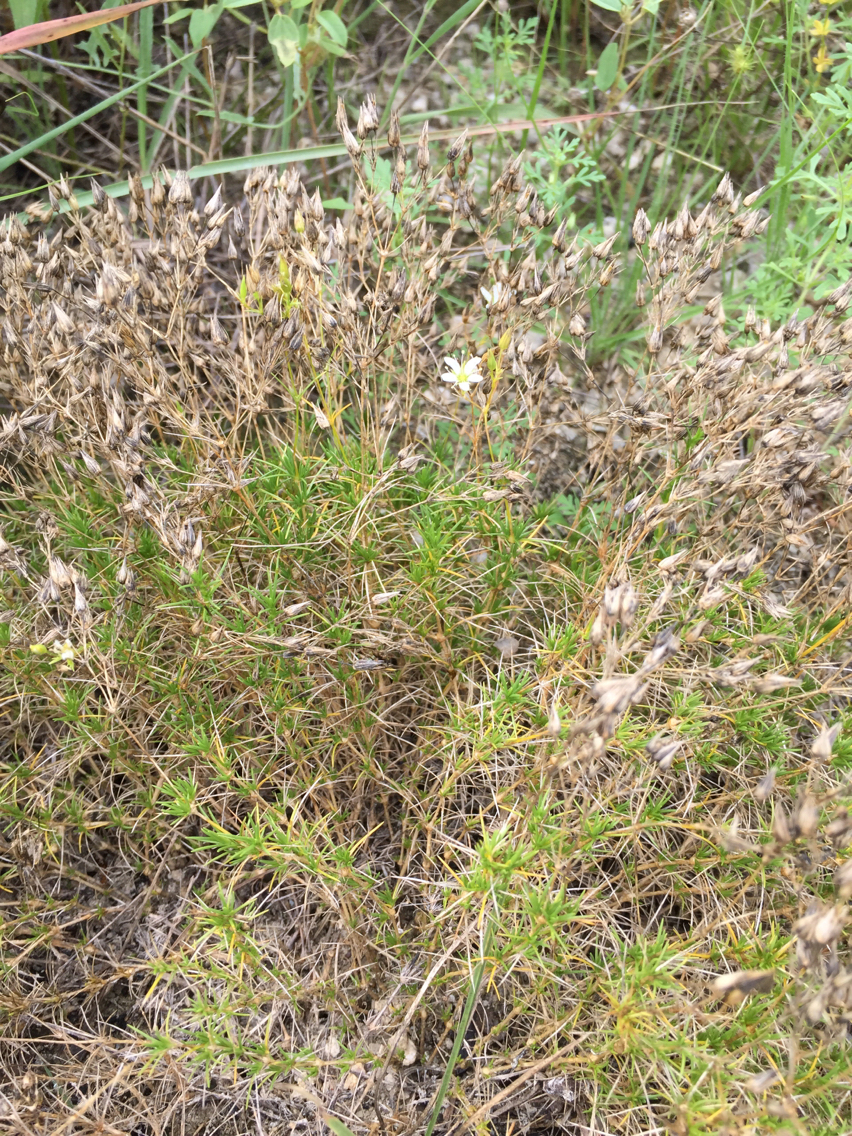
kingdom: Plantae
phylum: Tracheophyta
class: Magnoliopsida
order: Caryophyllales
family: Caryophyllaceae
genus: Sabulina
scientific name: Sabulina michauxii
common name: Michaux's stitchwort
